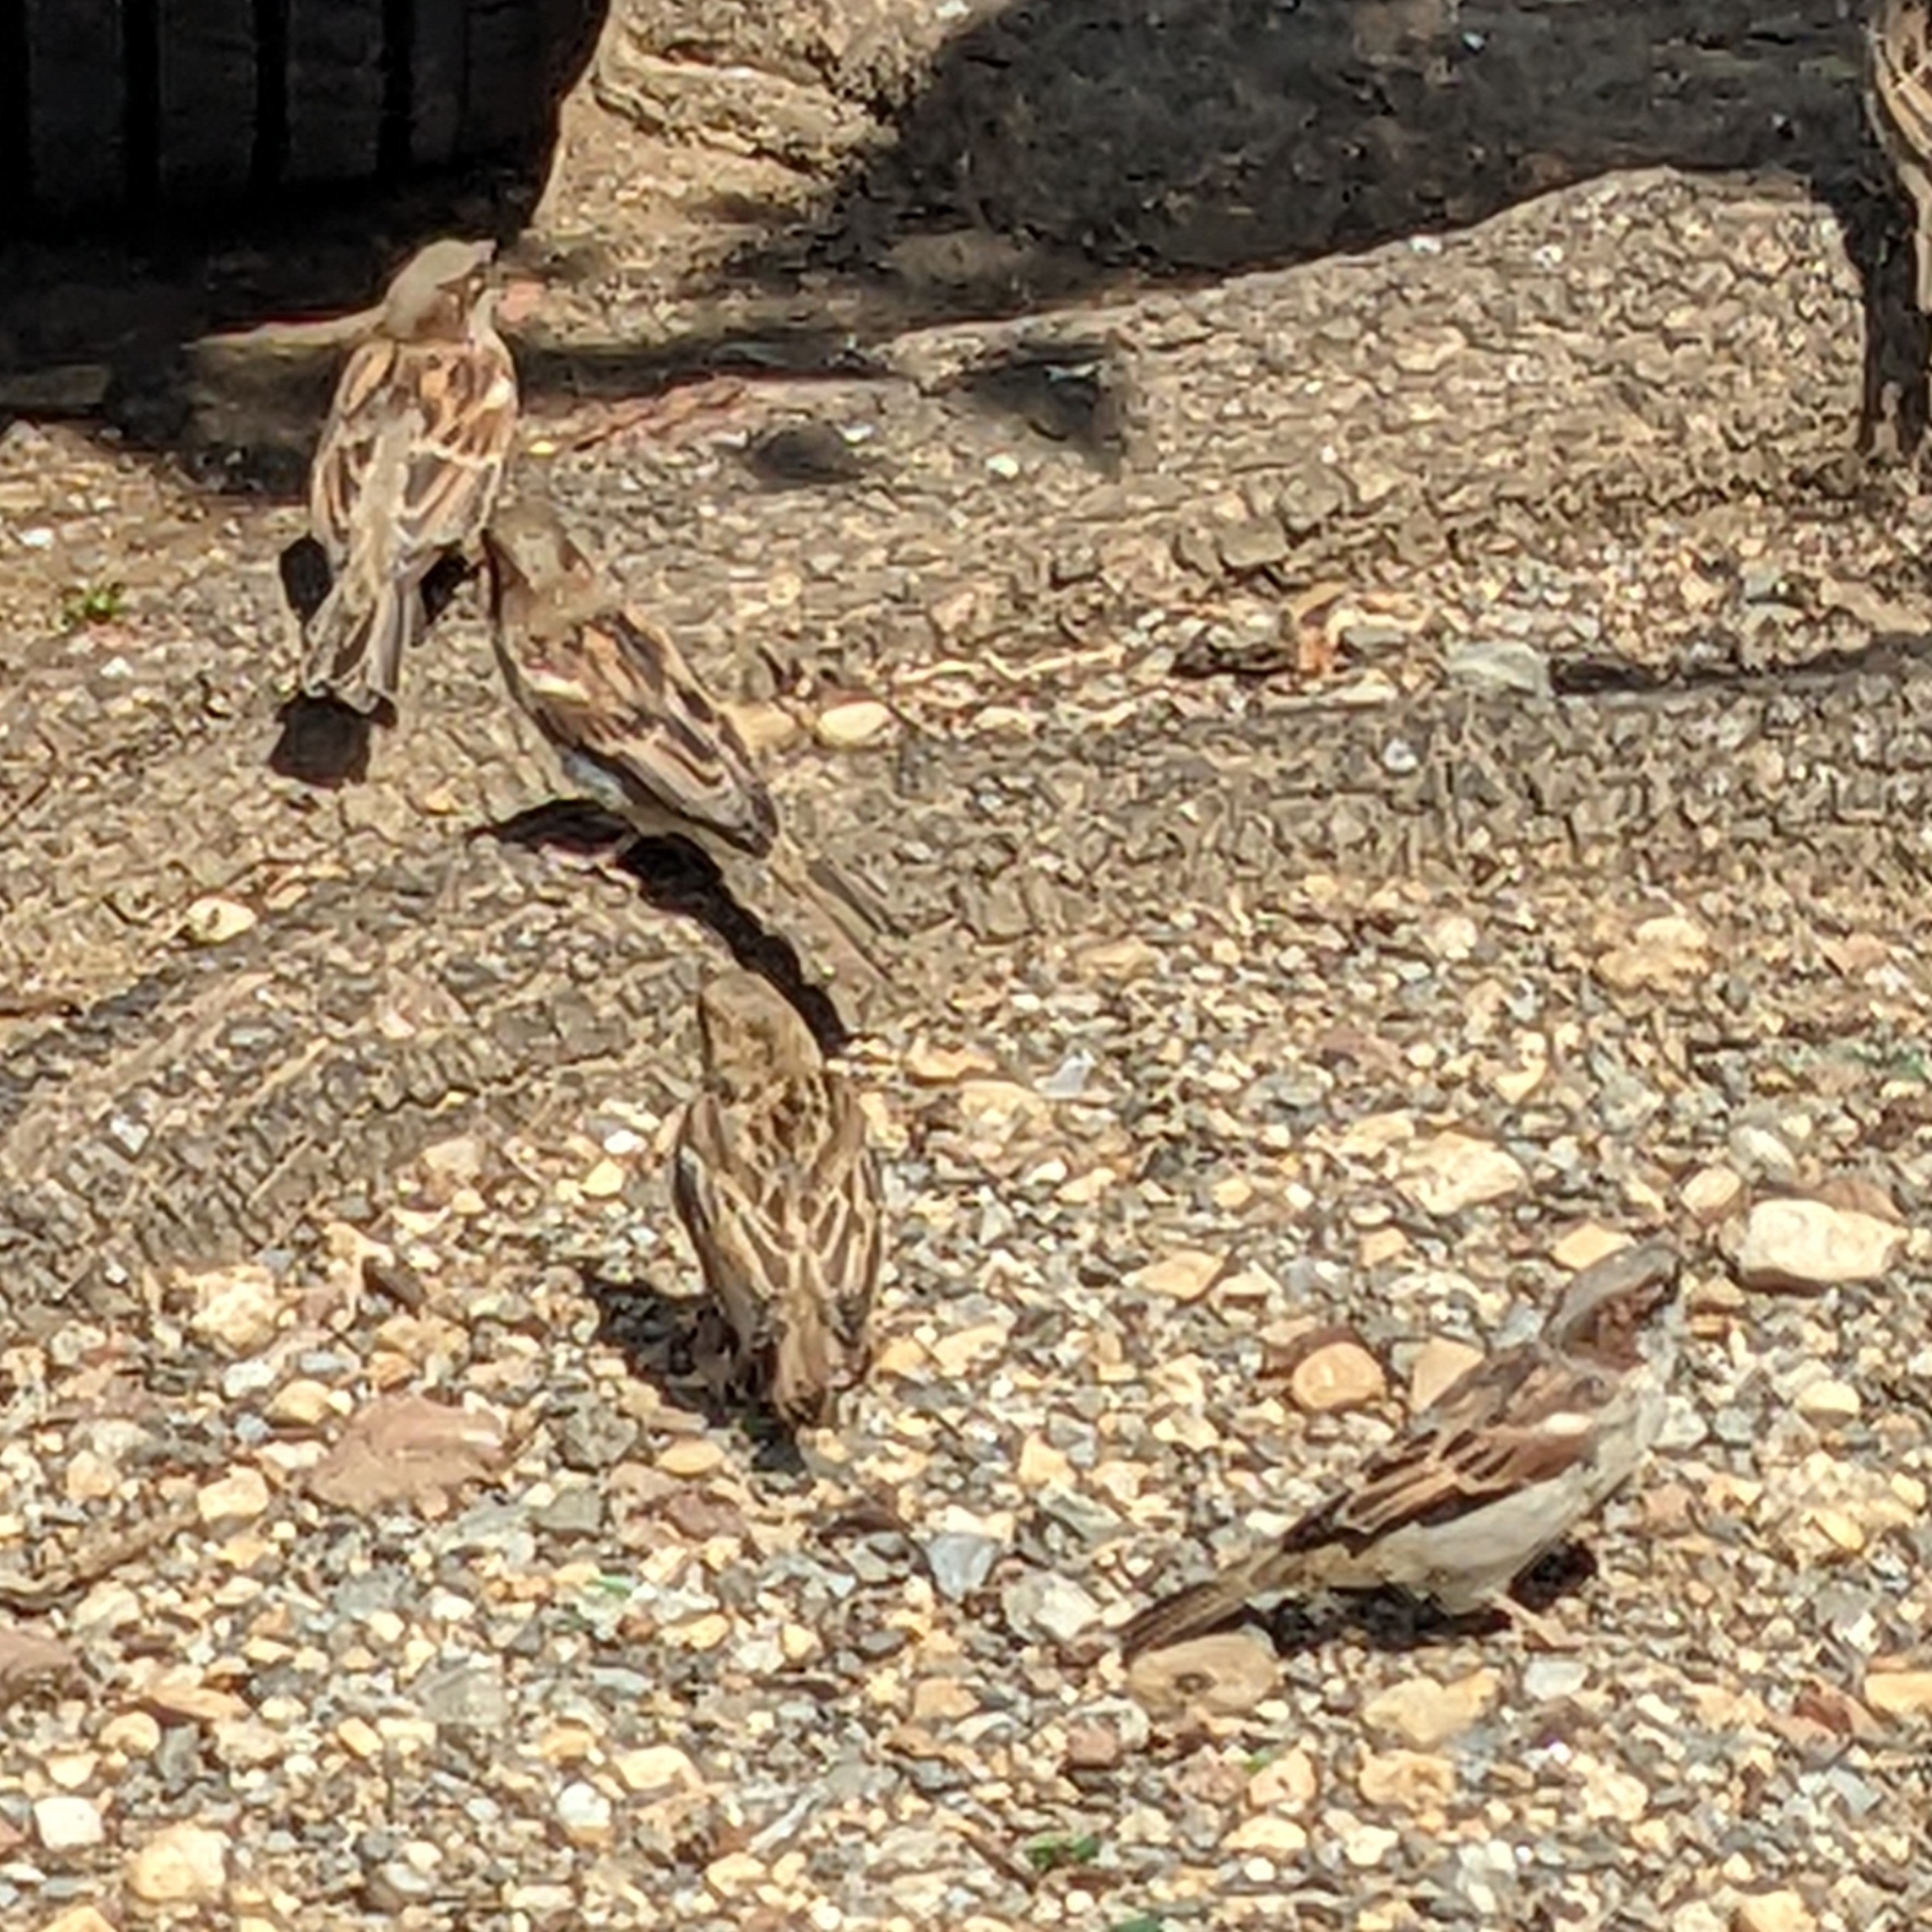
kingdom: Animalia
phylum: Chordata
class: Aves
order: Passeriformes
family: Passeridae
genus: Passer
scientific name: Passer domesticus
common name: House sparrow
